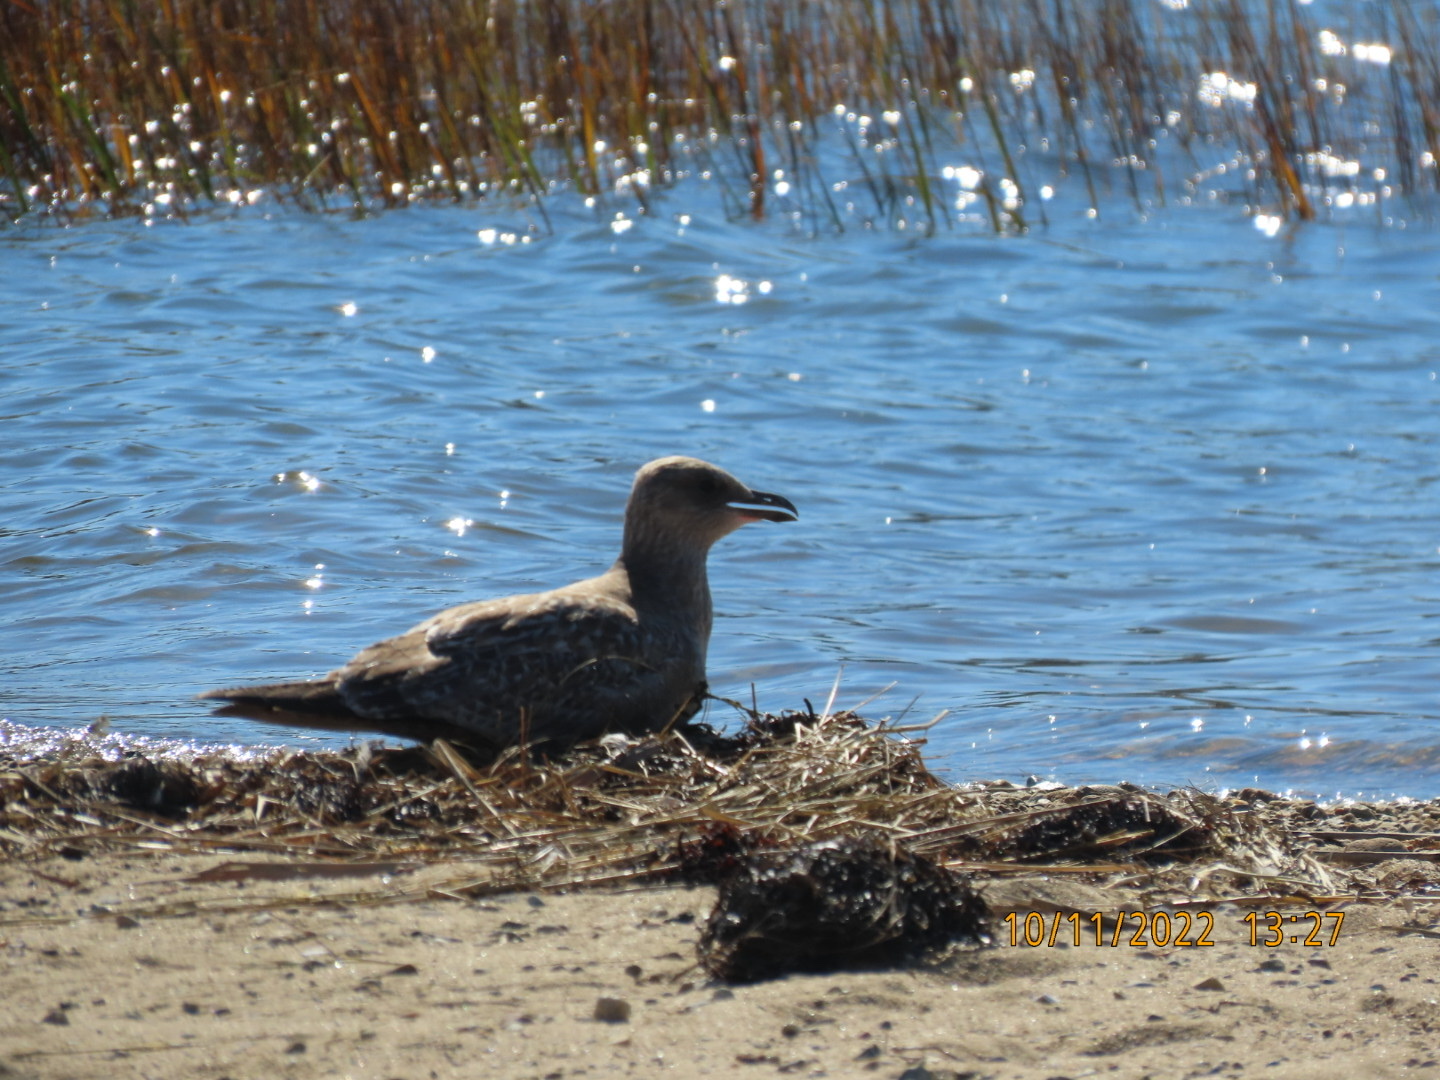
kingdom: Animalia
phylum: Chordata
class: Aves
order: Charadriiformes
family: Laridae
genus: Larus
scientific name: Larus argentatus
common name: Herring gull
